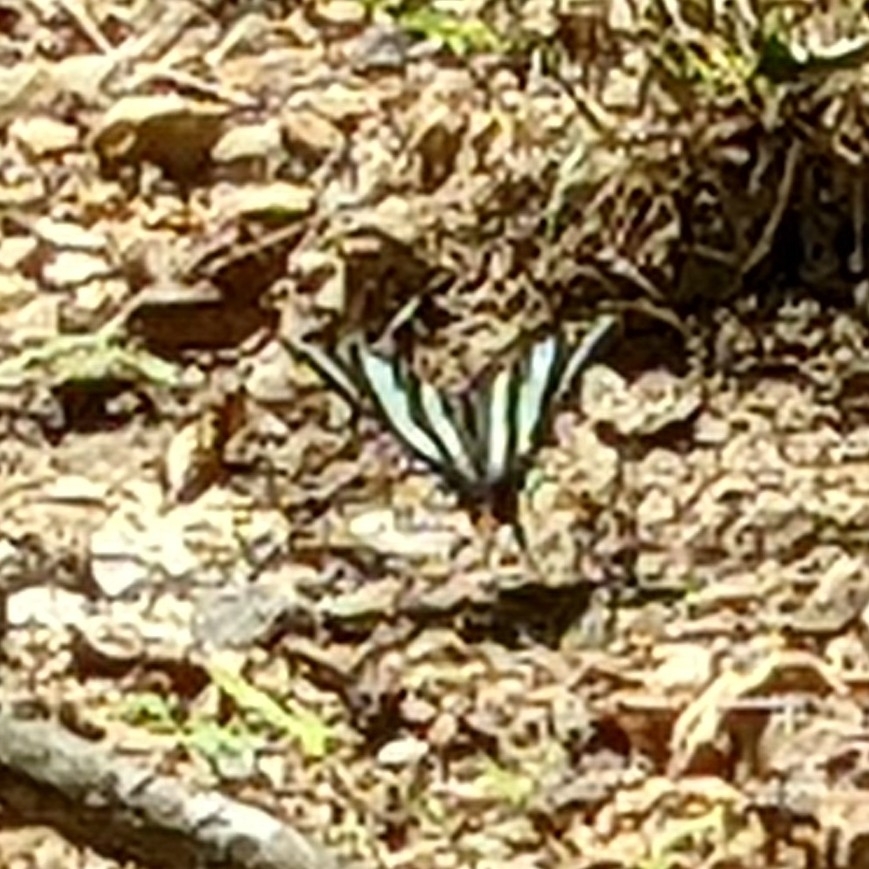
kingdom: Animalia
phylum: Arthropoda
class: Insecta
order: Lepidoptera
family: Papilionidae
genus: Protographium
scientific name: Protographium marcellus
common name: Zebra swallowtail
